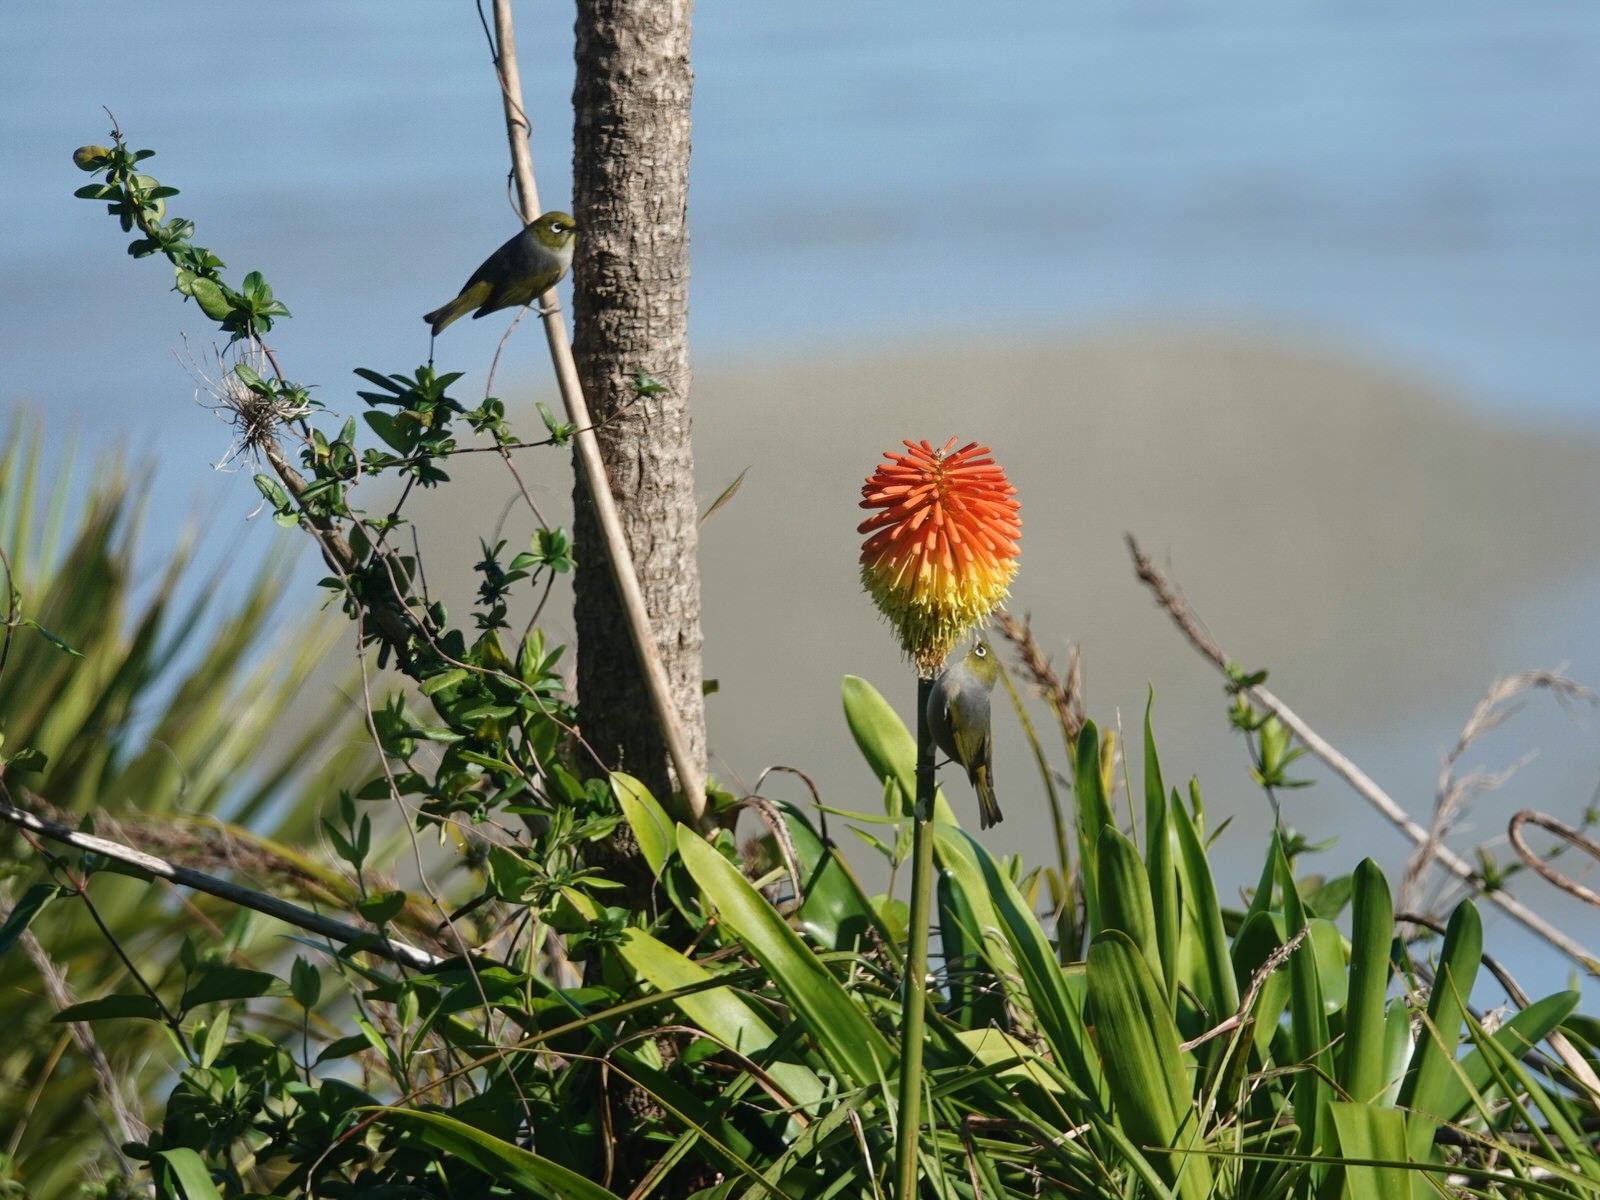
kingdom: Animalia
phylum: Chordata
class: Aves
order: Passeriformes
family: Zosteropidae
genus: Zosterops
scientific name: Zosterops lateralis
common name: Silvereye
